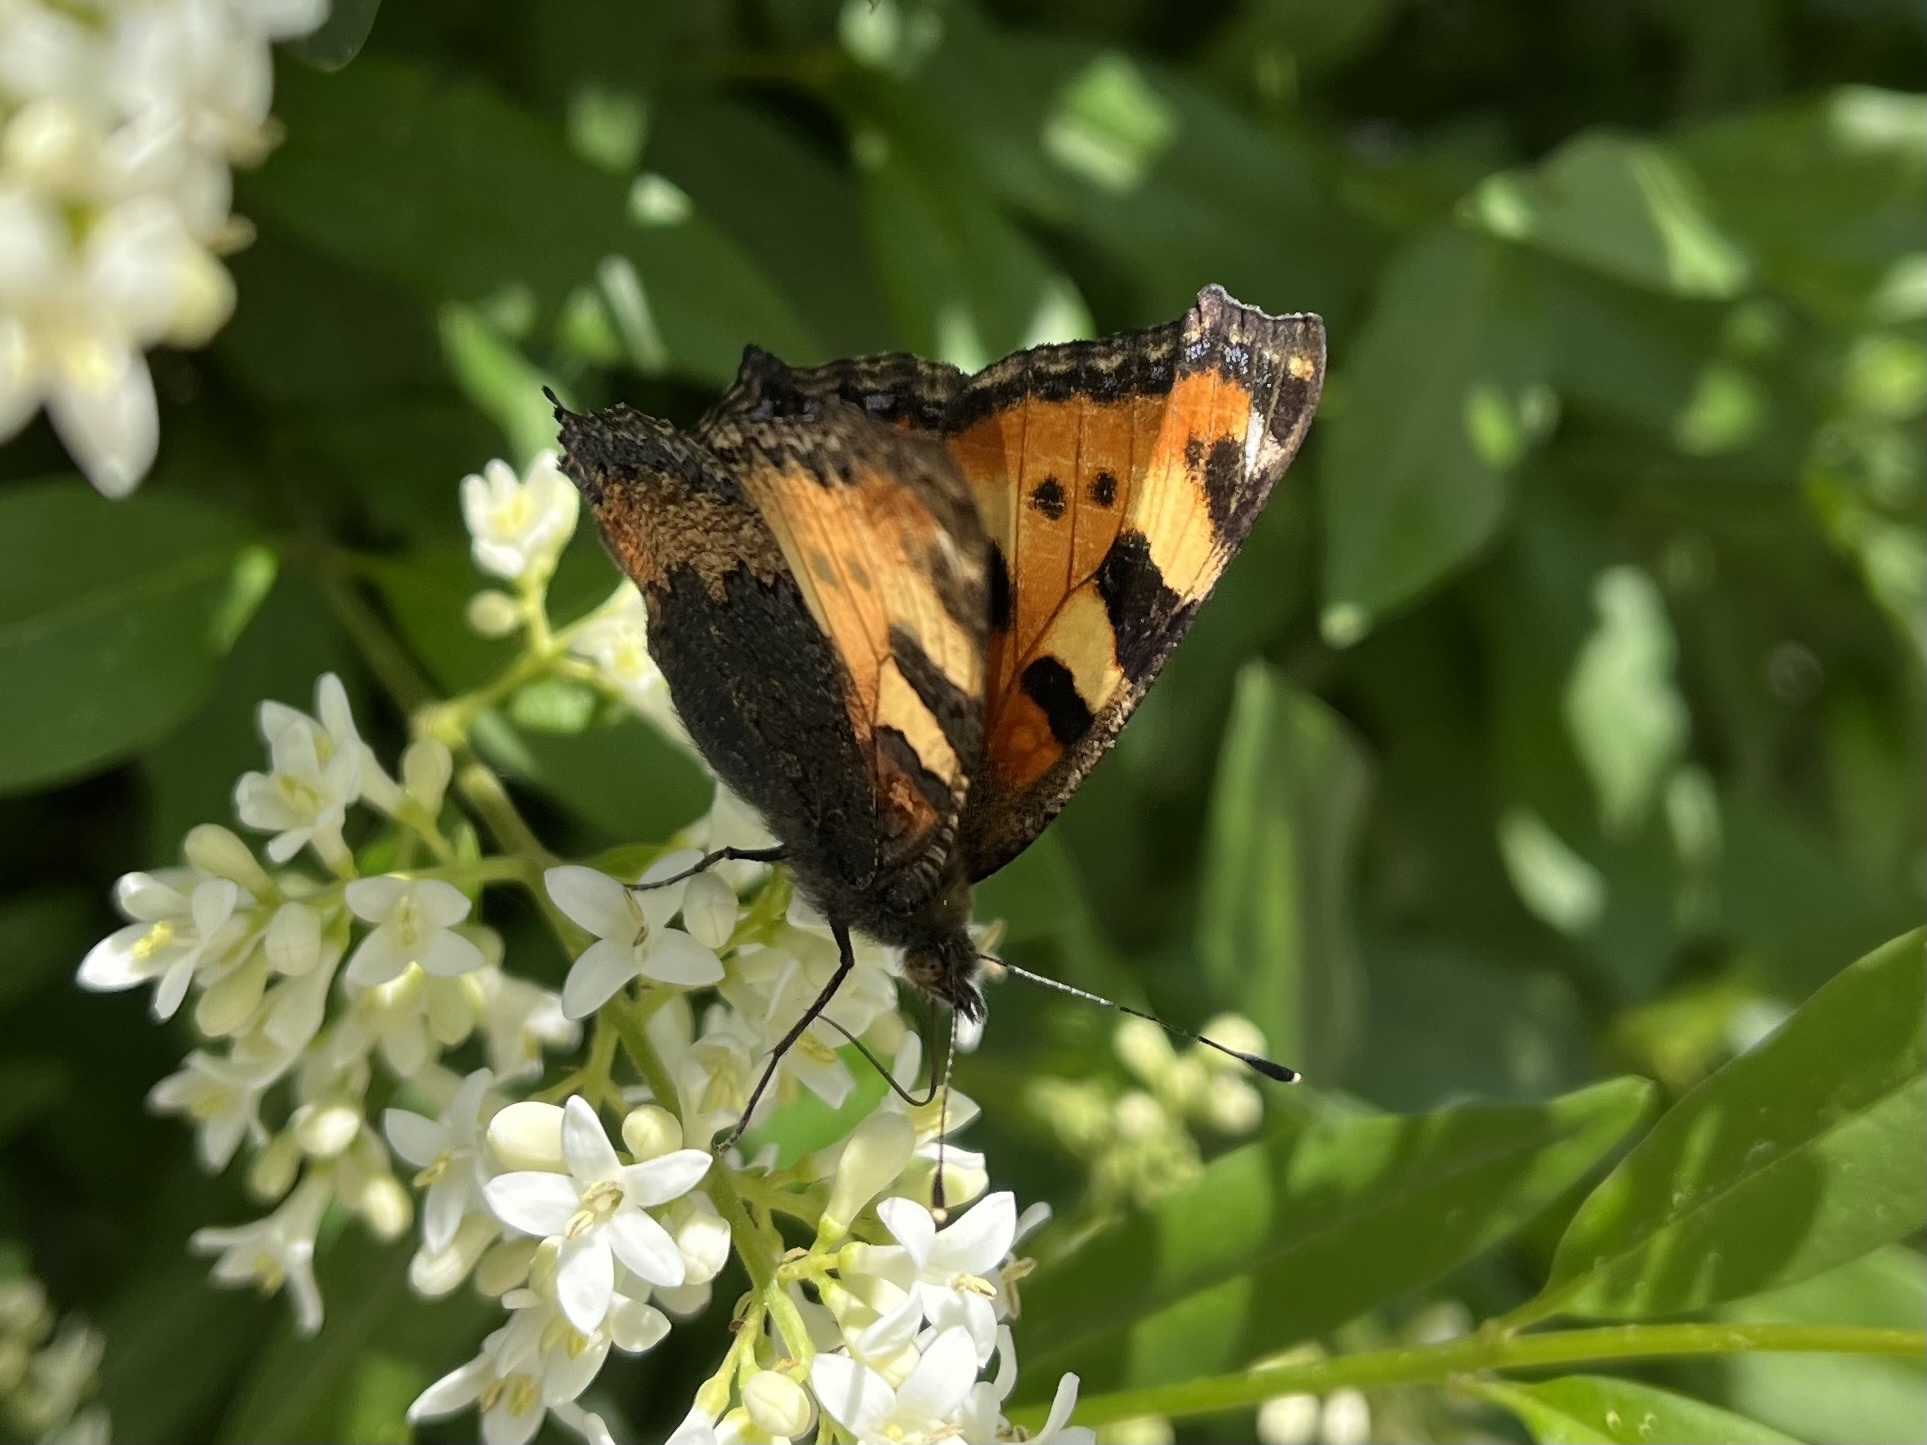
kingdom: Animalia
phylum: Arthropoda
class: Insecta
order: Lepidoptera
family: Nymphalidae
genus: Aglais
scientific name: Aglais urticae
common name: Small tortoiseshell
